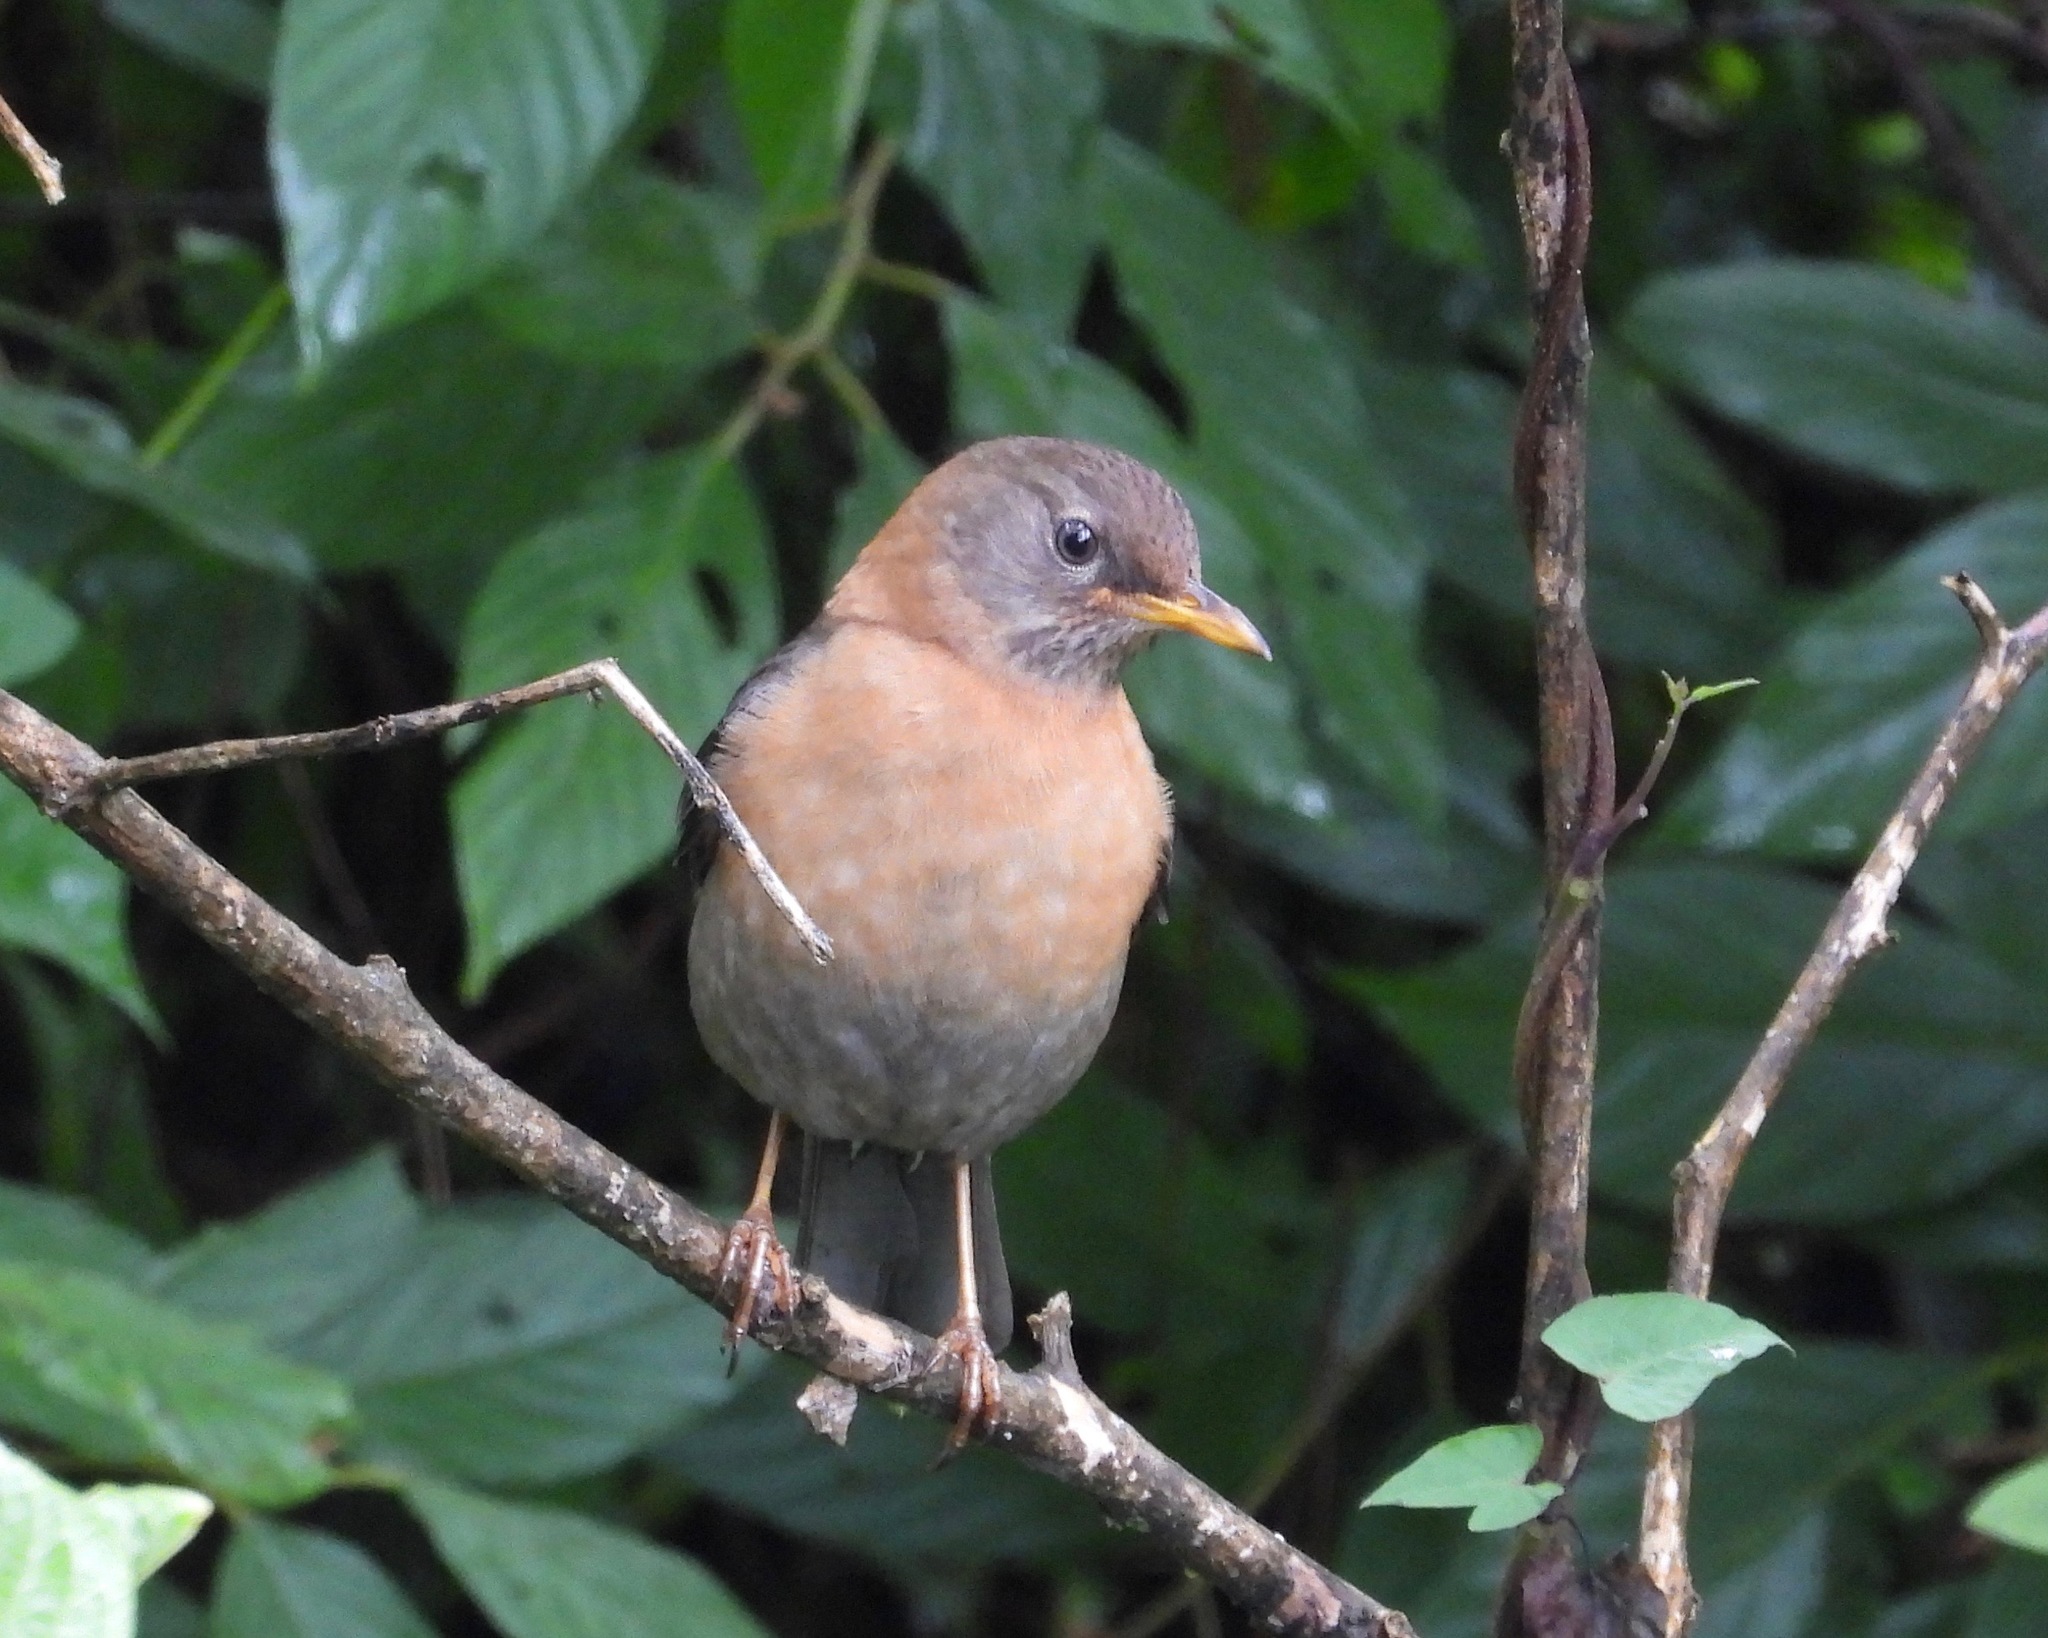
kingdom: Animalia
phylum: Chordata
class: Aves
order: Passeriformes
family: Turdidae
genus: Turdus
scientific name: Turdus rufitorques
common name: Rufous-collared thrush
